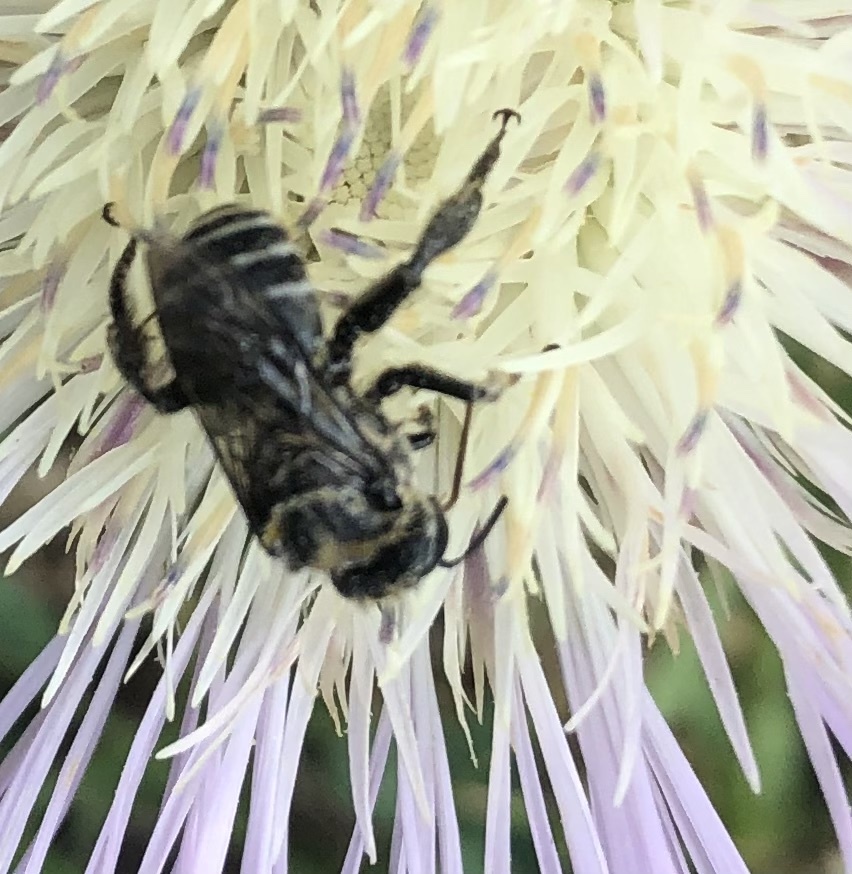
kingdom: Animalia
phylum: Arthropoda
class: Insecta
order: Hymenoptera
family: Apidae
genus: Melitoma
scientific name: Melitoma taurea
